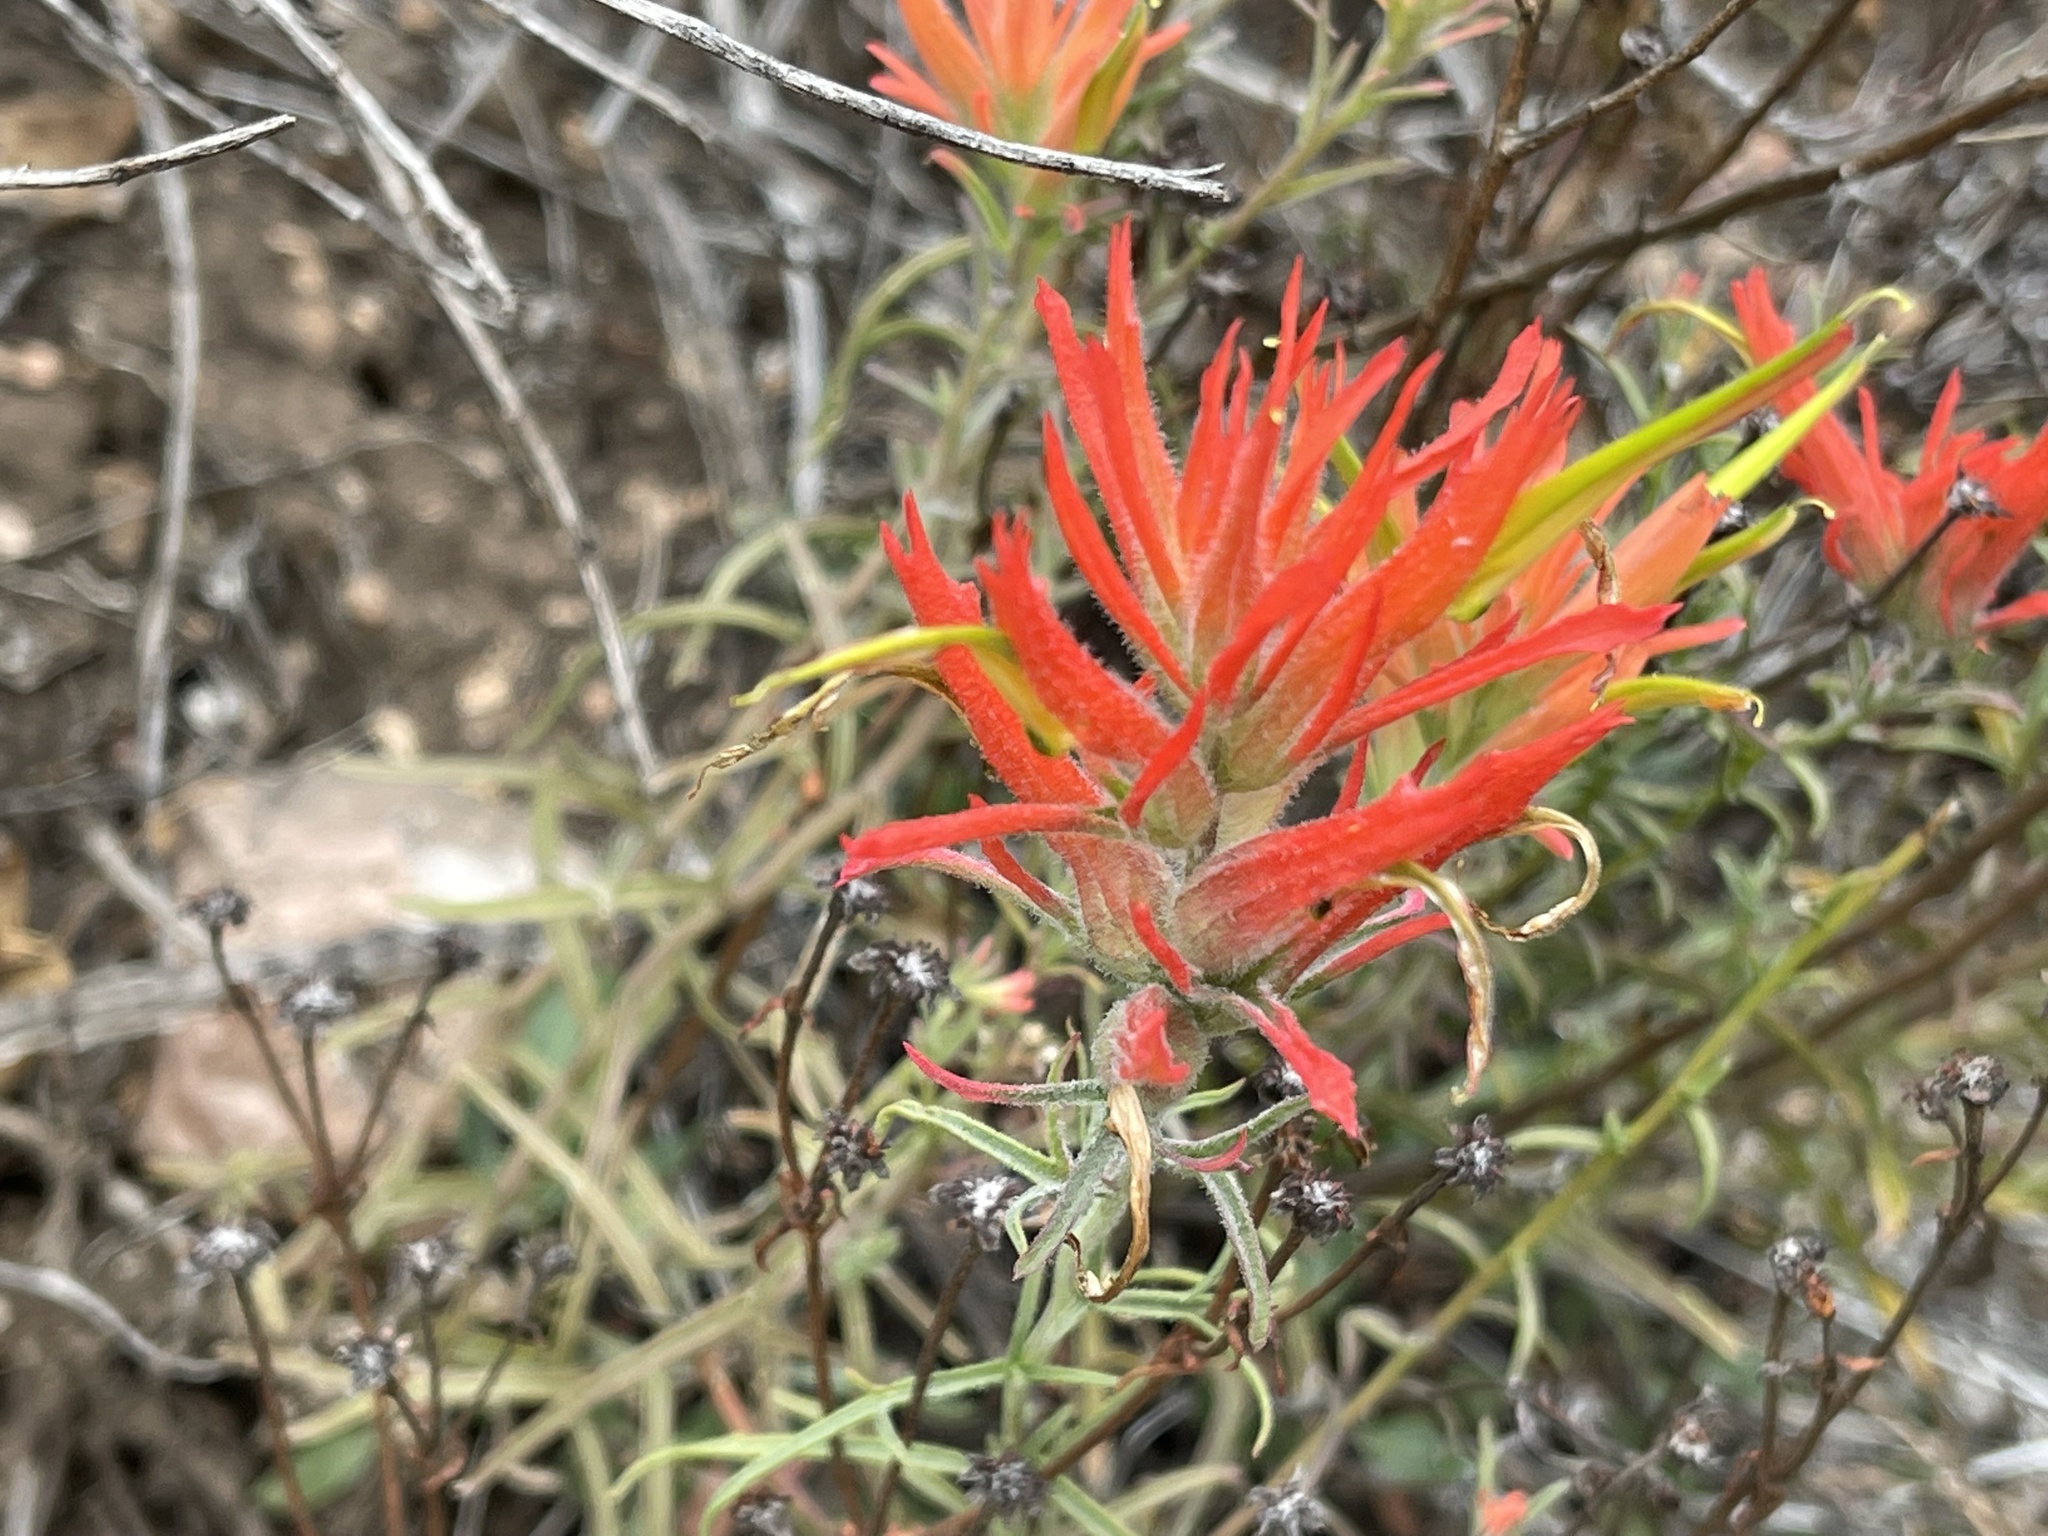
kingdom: Plantae
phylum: Tracheophyta
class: Magnoliopsida
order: Lamiales
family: Orobanchaceae
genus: Castilleja
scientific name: Castilleja linariifolia
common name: Wyoming paintbrush
